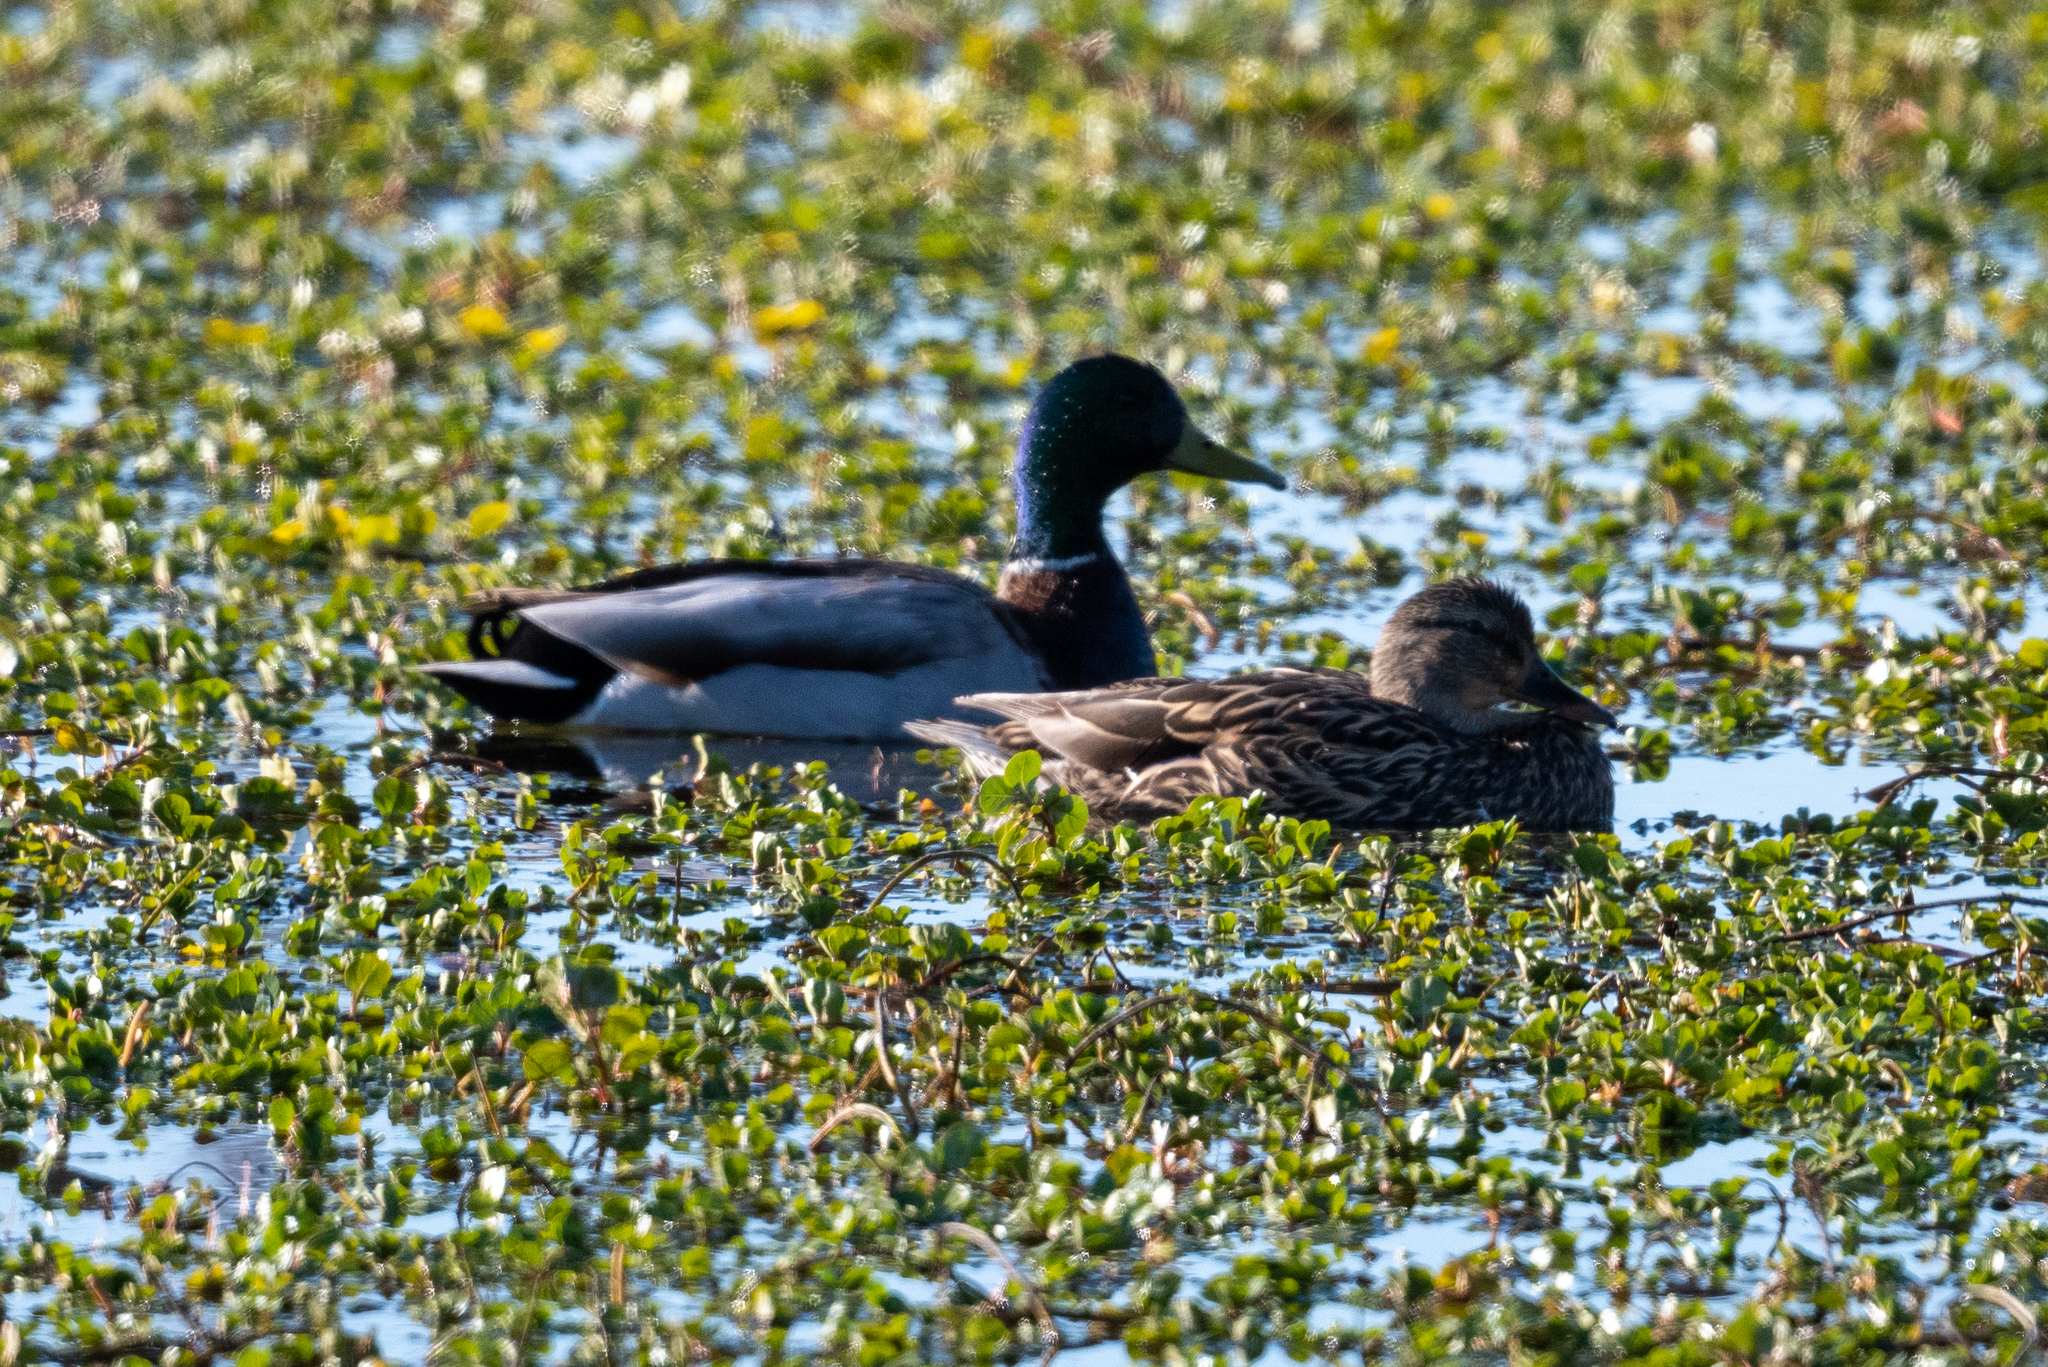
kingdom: Animalia
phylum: Chordata
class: Aves
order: Anseriformes
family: Anatidae
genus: Anas
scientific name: Anas platyrhynchos
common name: Mallard
